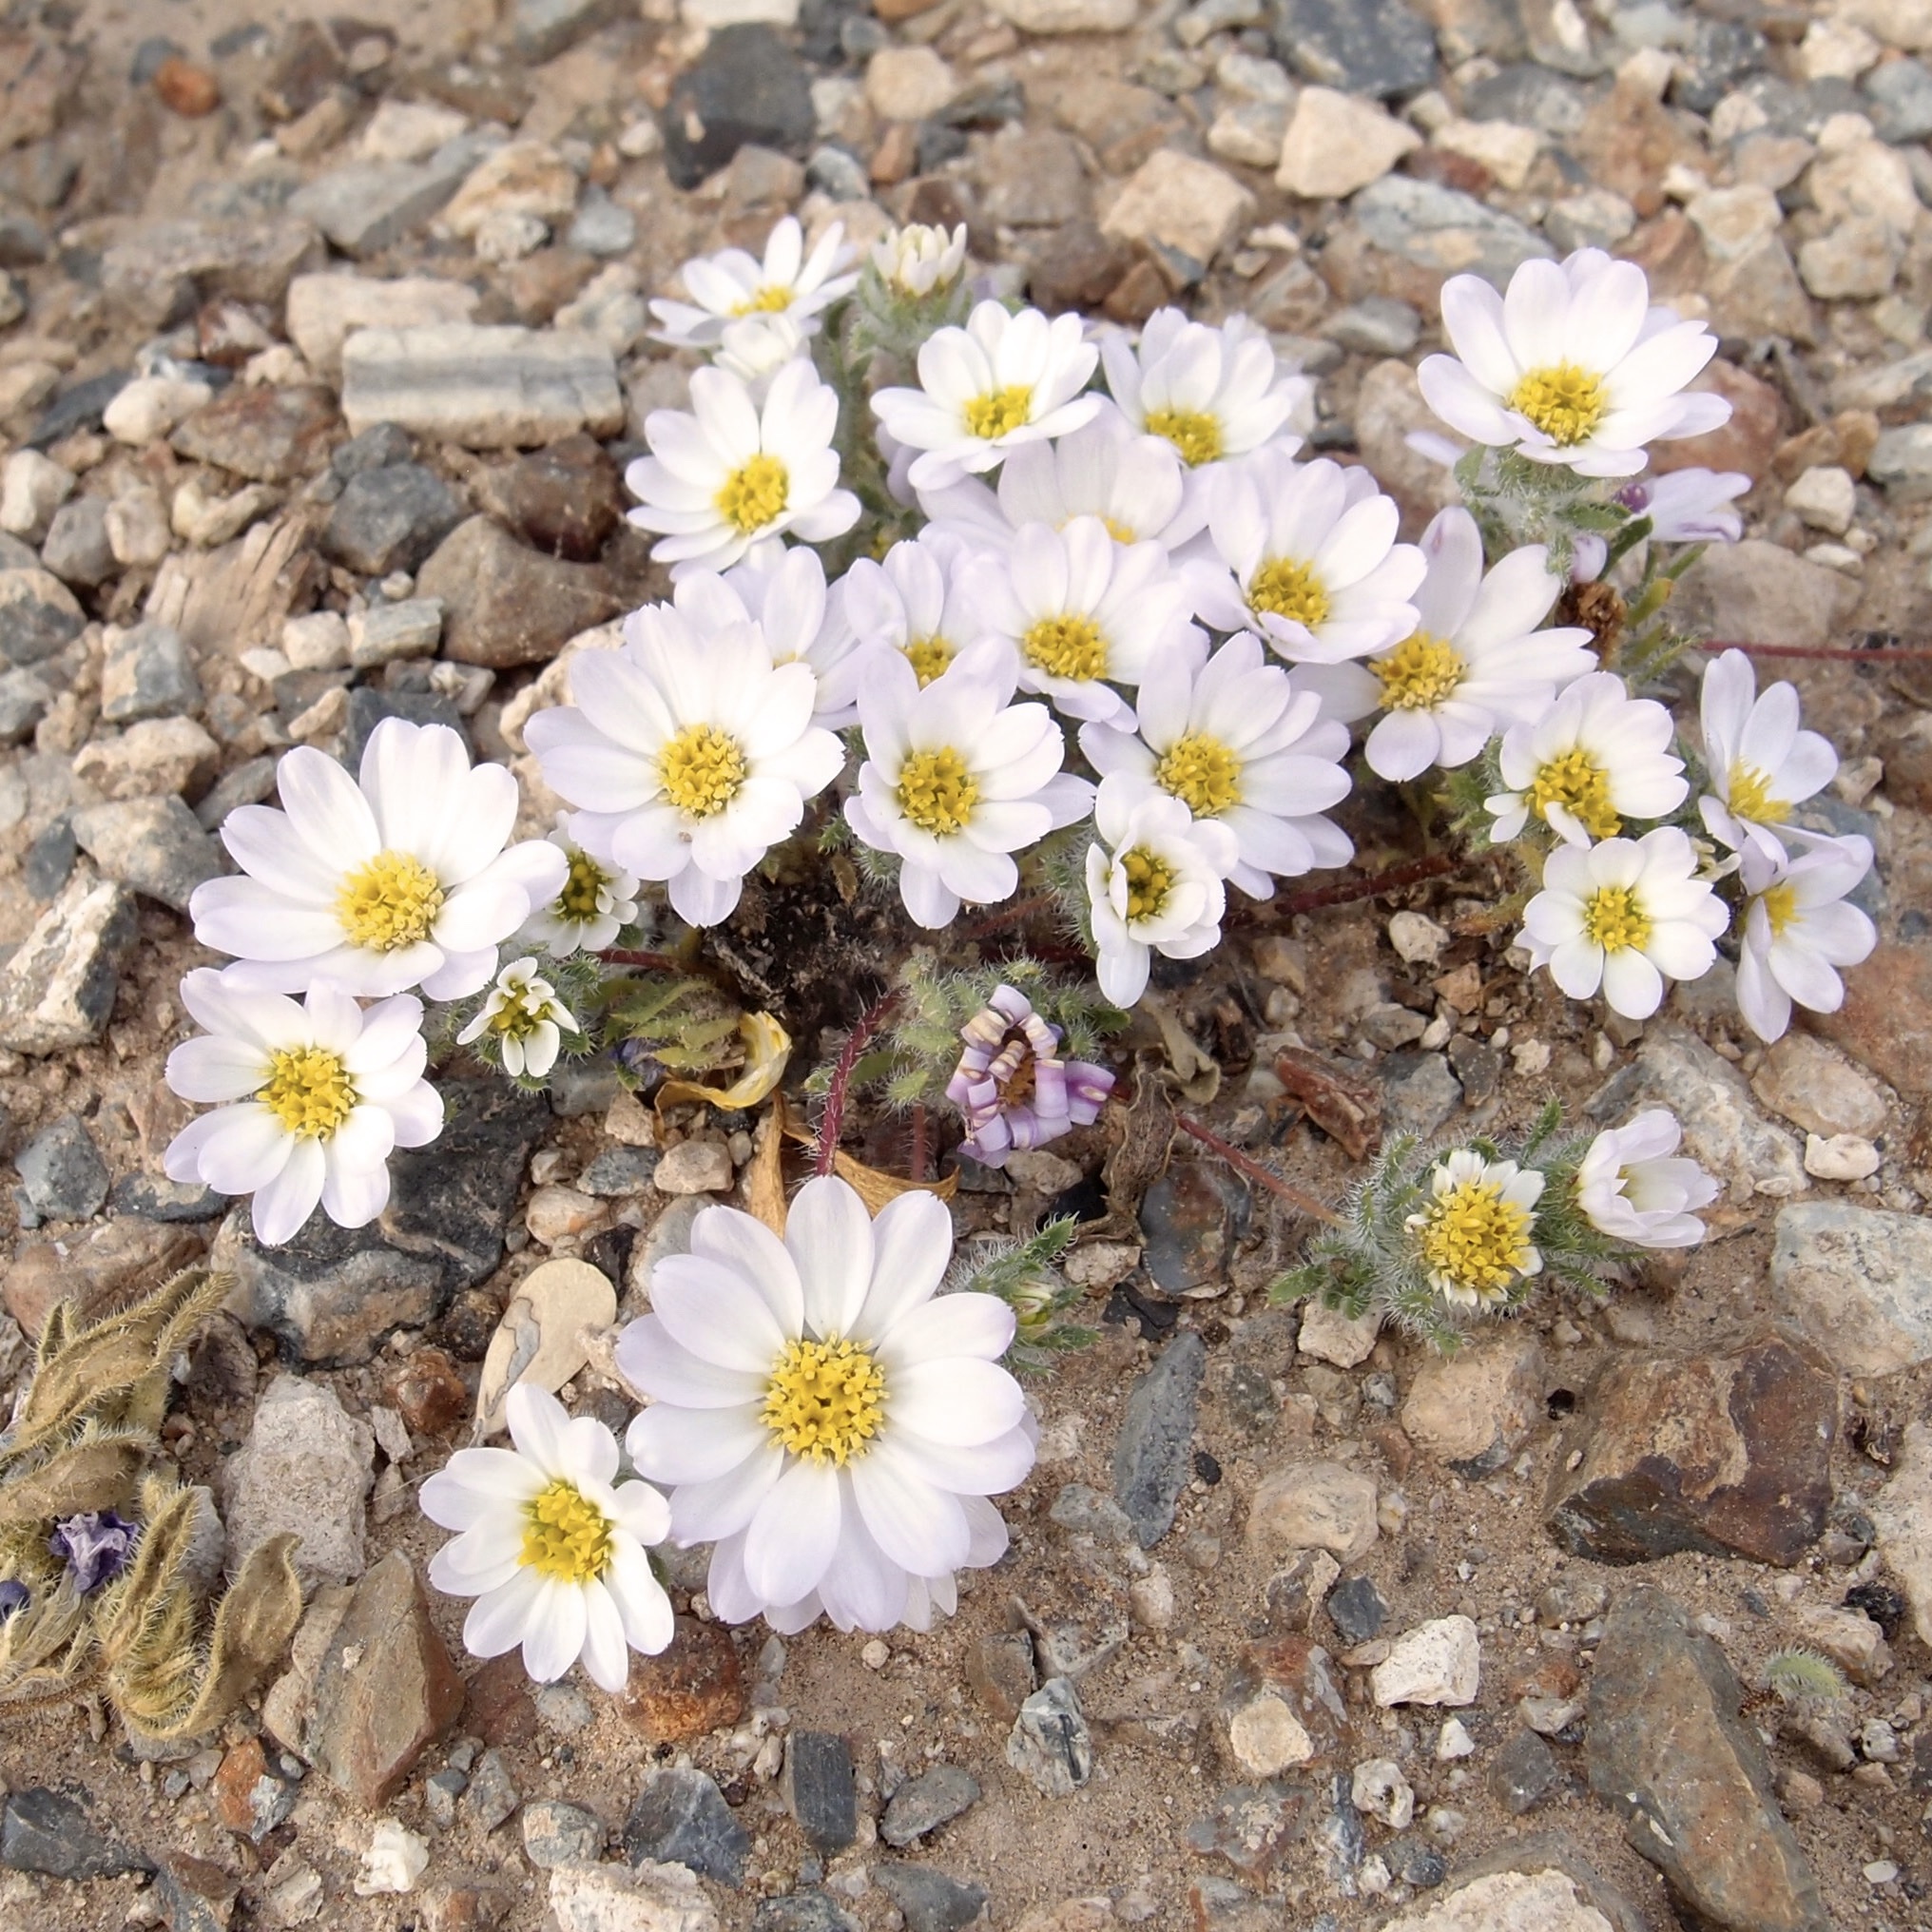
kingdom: Plantae
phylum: Tracheophyta
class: Magnoliopsida
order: Asterales
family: Asteraceae
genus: Monoptilon
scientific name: Monoptilon bellioides
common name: Bristly desertstar
